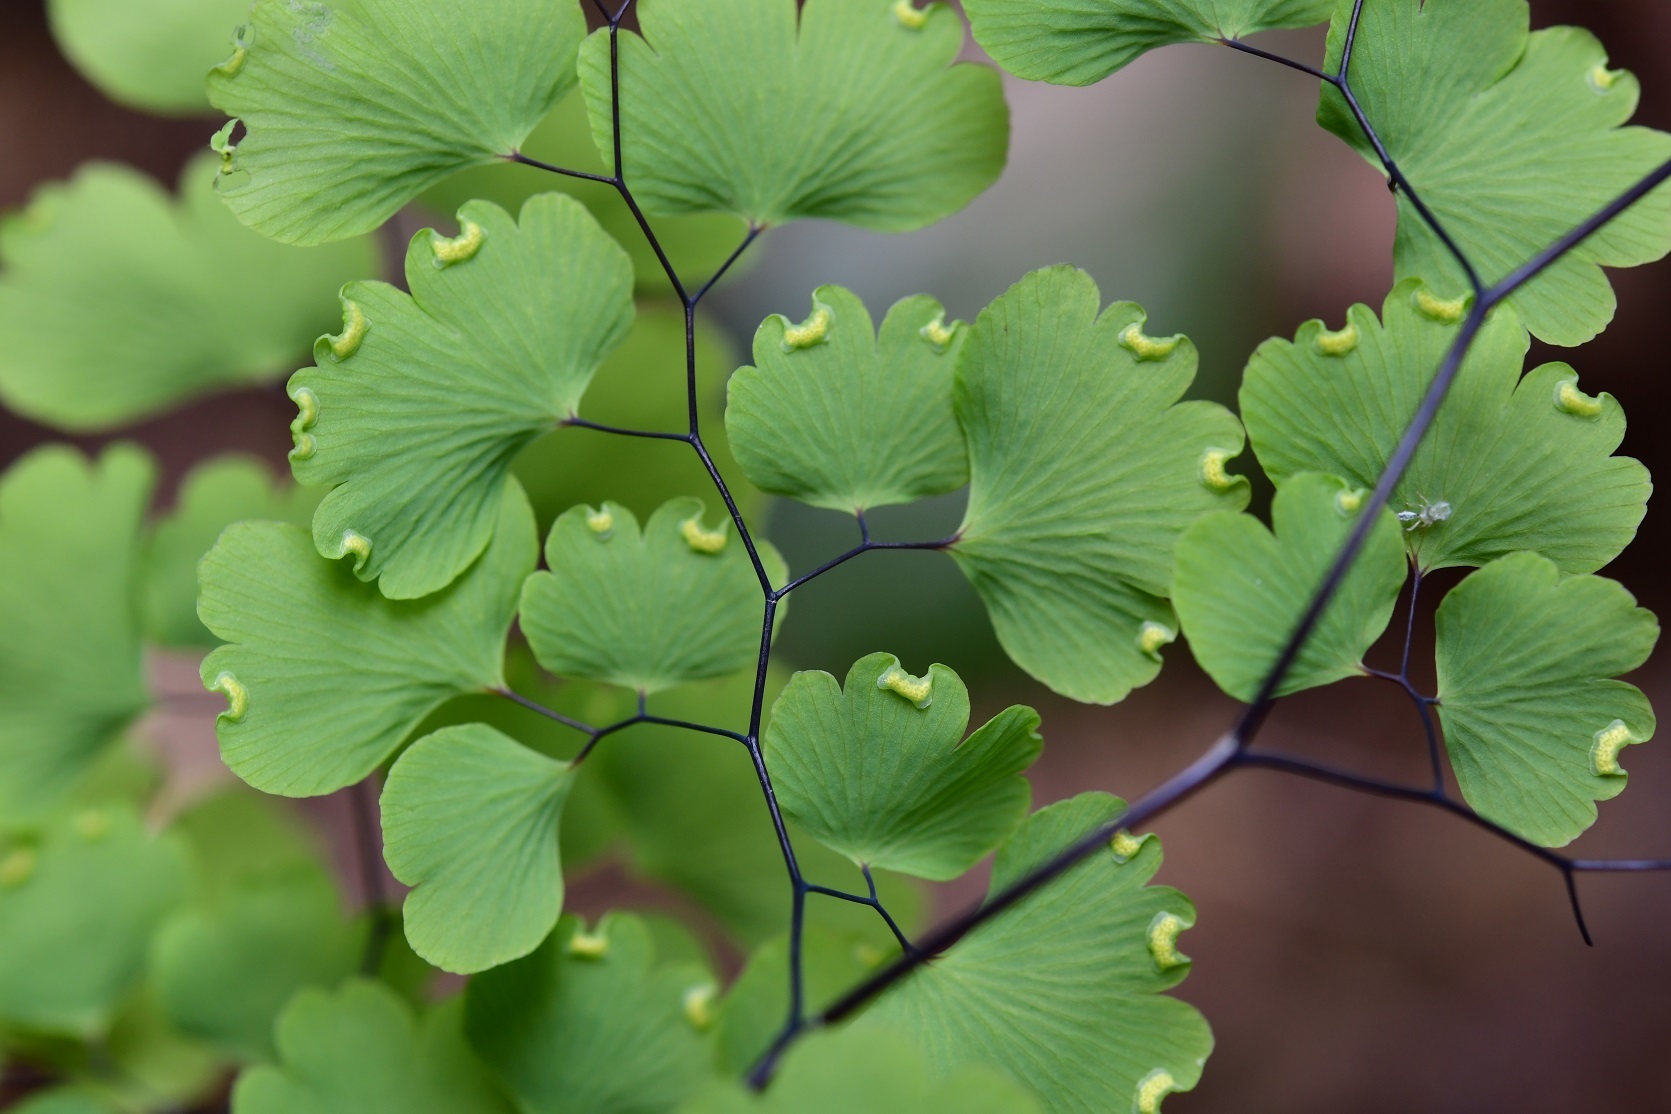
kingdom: Plantae
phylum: Tracheophyta
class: Polypodiopsida
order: Polypodiales
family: Pteridaceae
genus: Adiantum
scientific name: Adiantum poiretii
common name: Mexican maidenhair
